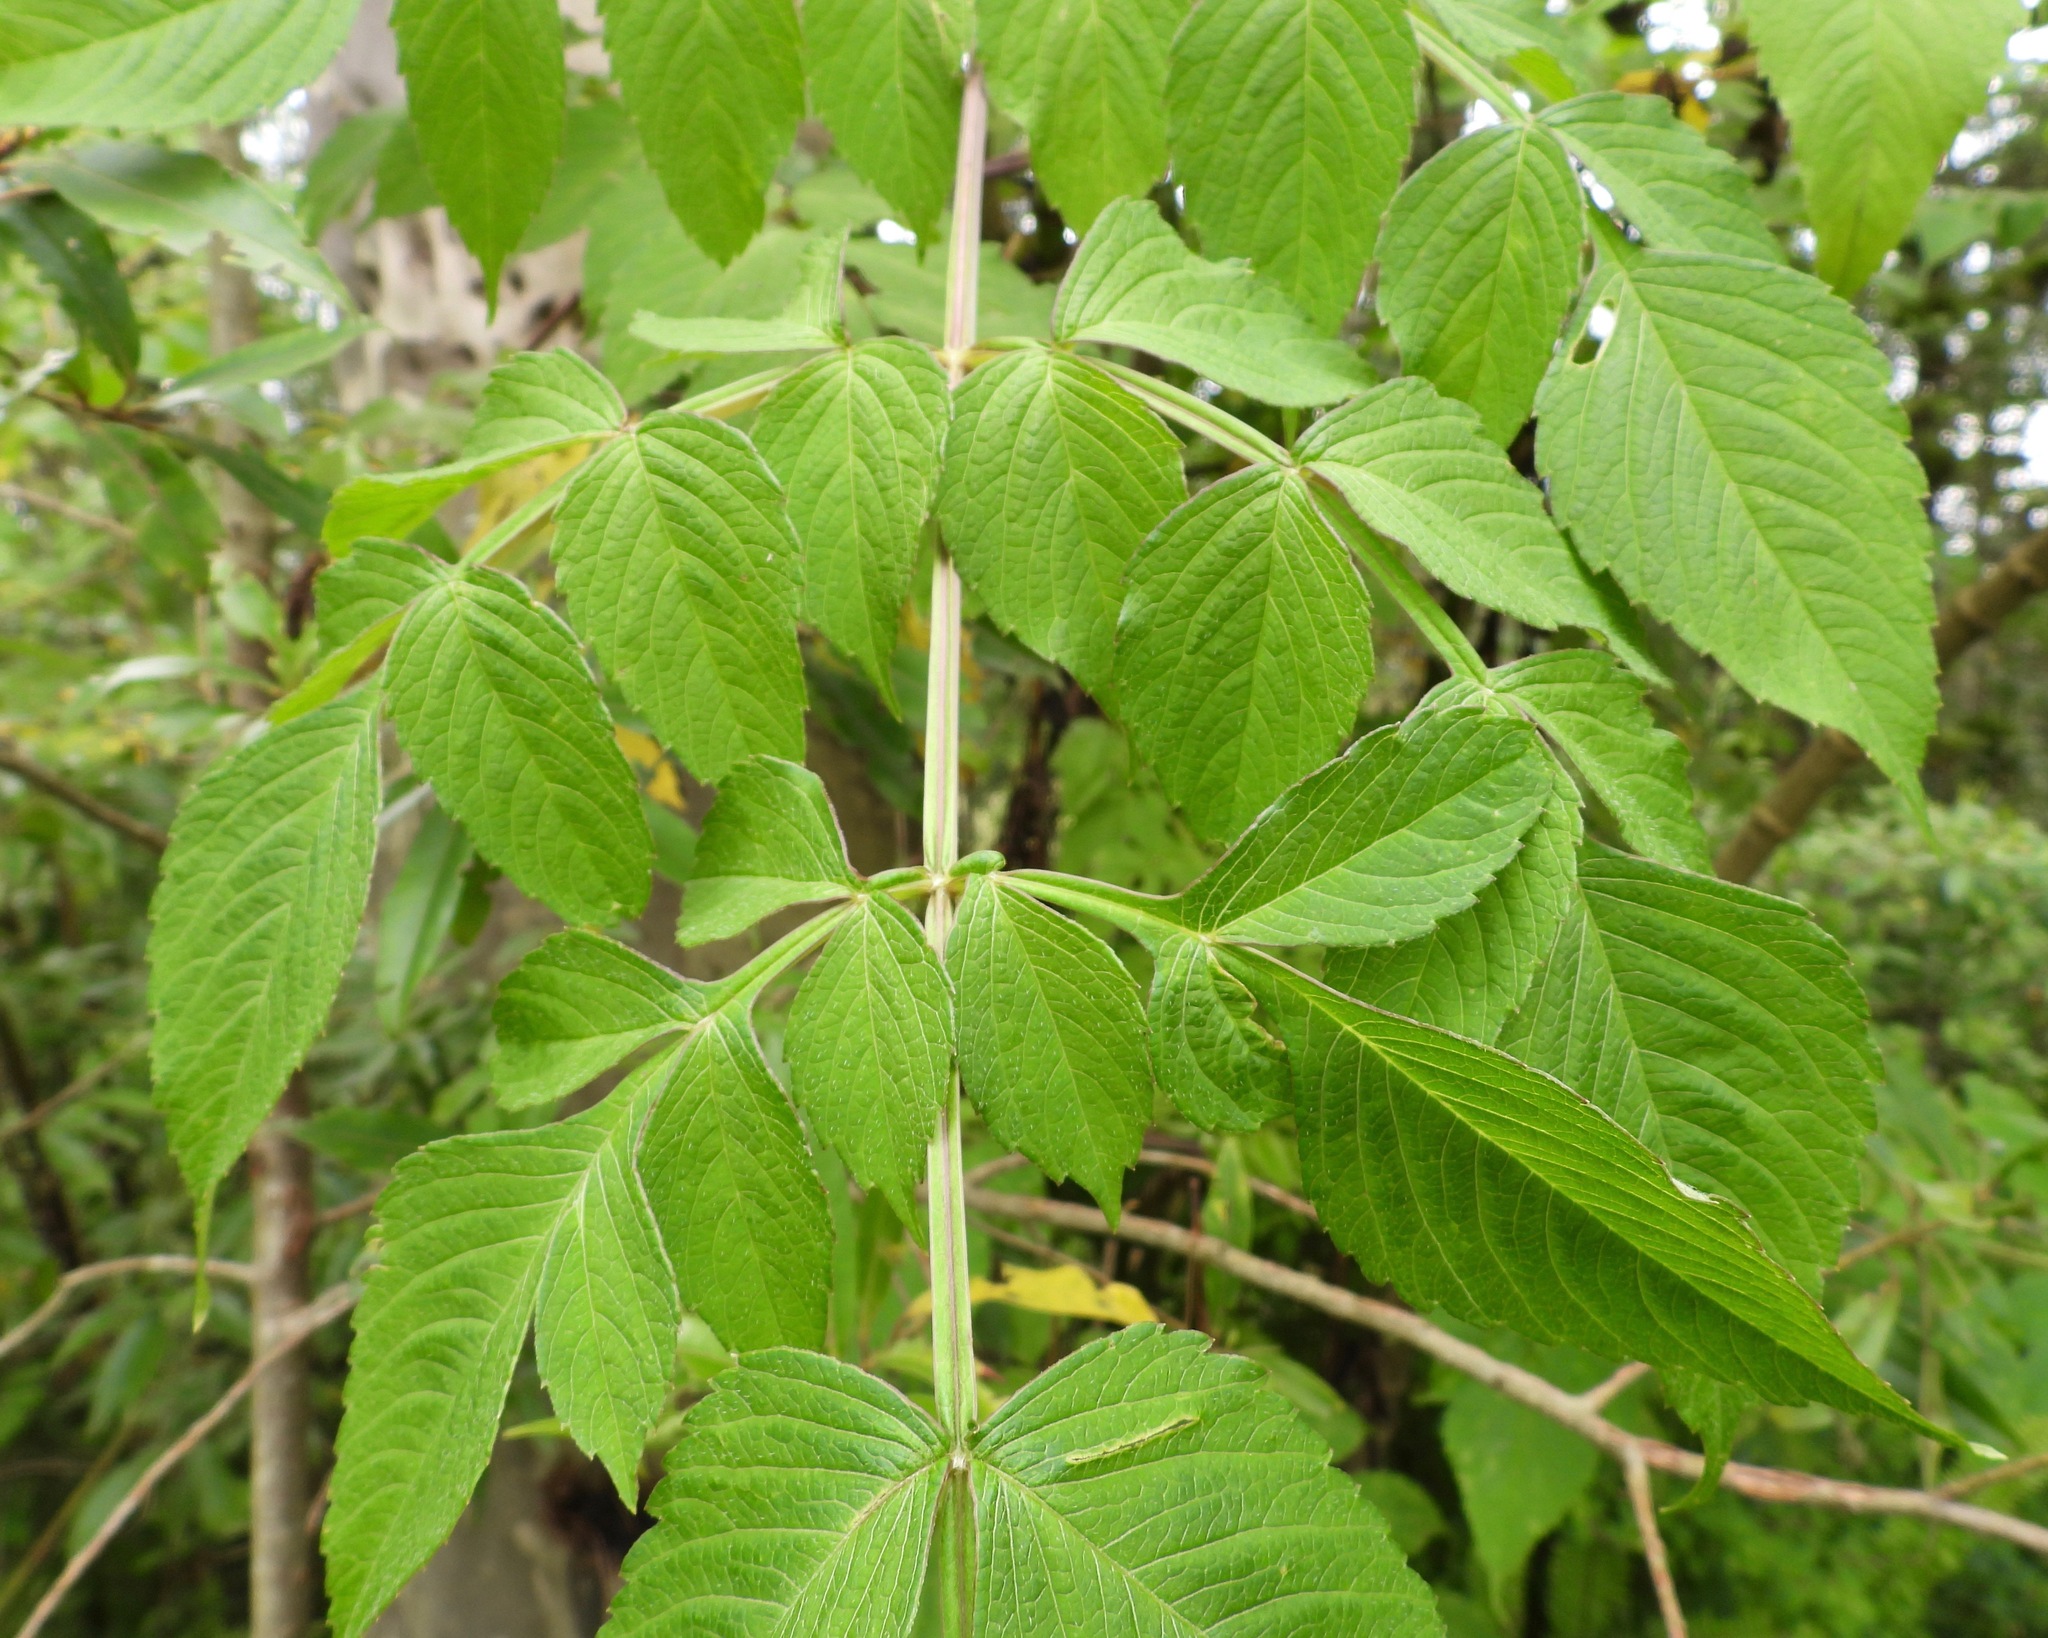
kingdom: Plantae
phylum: Tracheophyta
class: Magnoliopsida
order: Asterales
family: Asteraceae
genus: Dahlia
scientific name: Dahlia imperialis
